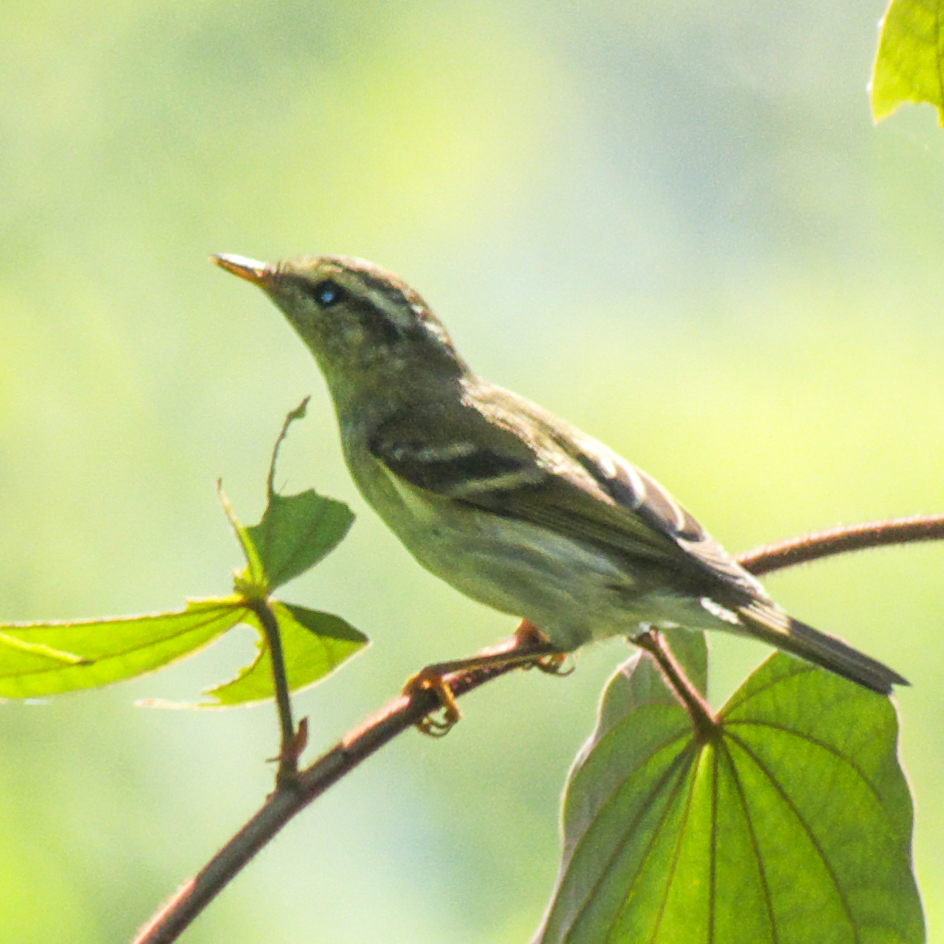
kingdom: Animalia
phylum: Chordata
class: Aves
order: Passeriformes
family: Phylloscopidae
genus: Phylloscopus
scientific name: Phylloscopus inornatus
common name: Yellow-browed warbler
